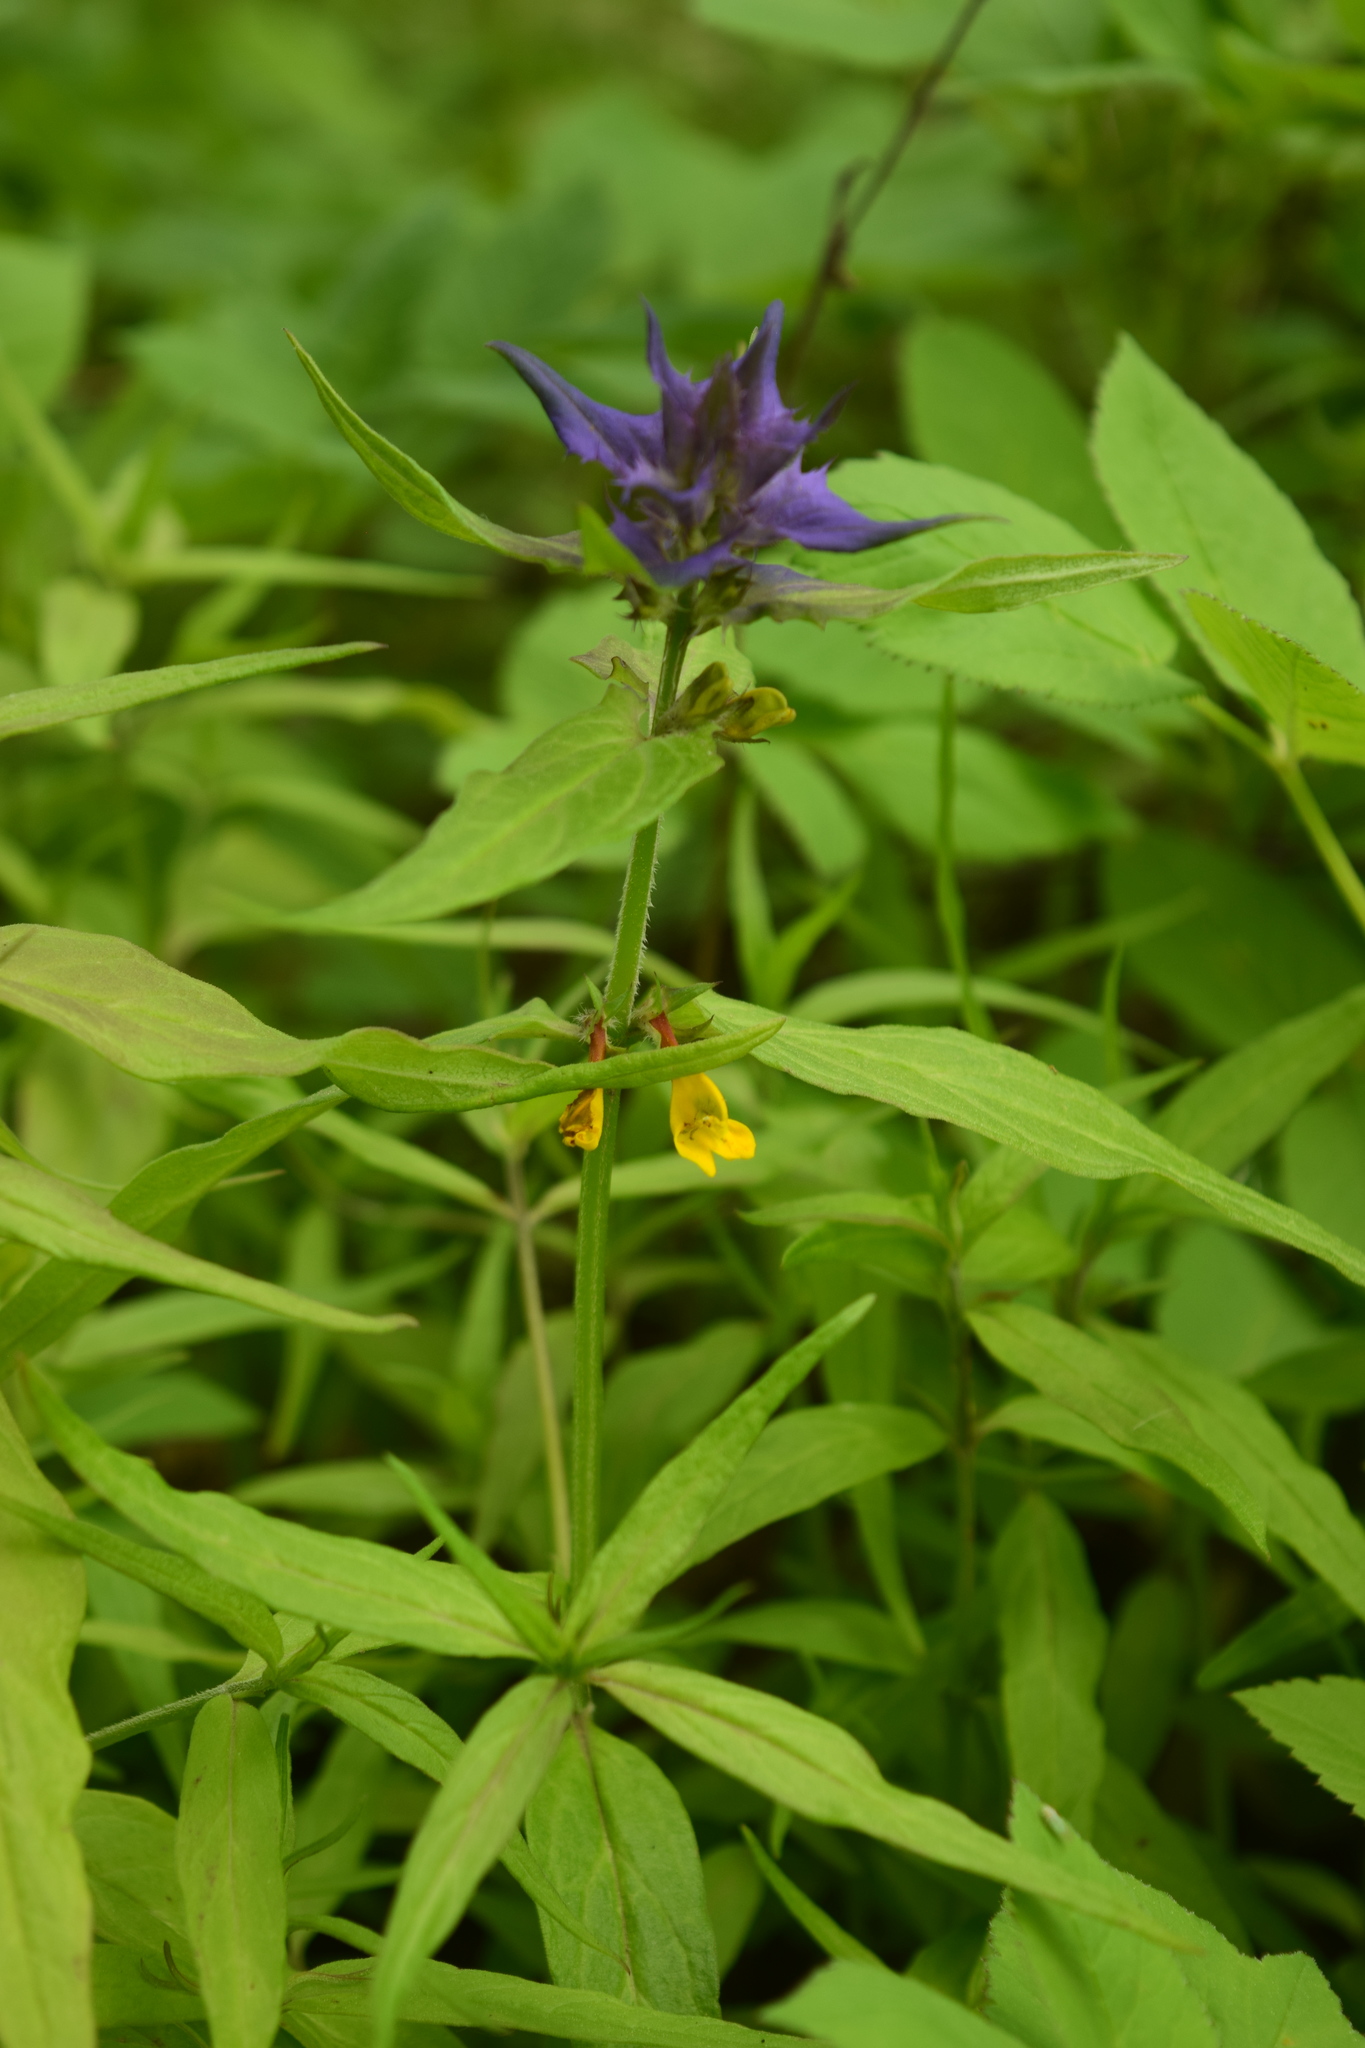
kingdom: Plantae
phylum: Tracheophyta
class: Magnoliopsida
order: Lamiales
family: Orobanchaceae
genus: Melampyrum
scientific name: Melampyrum nemorosum
